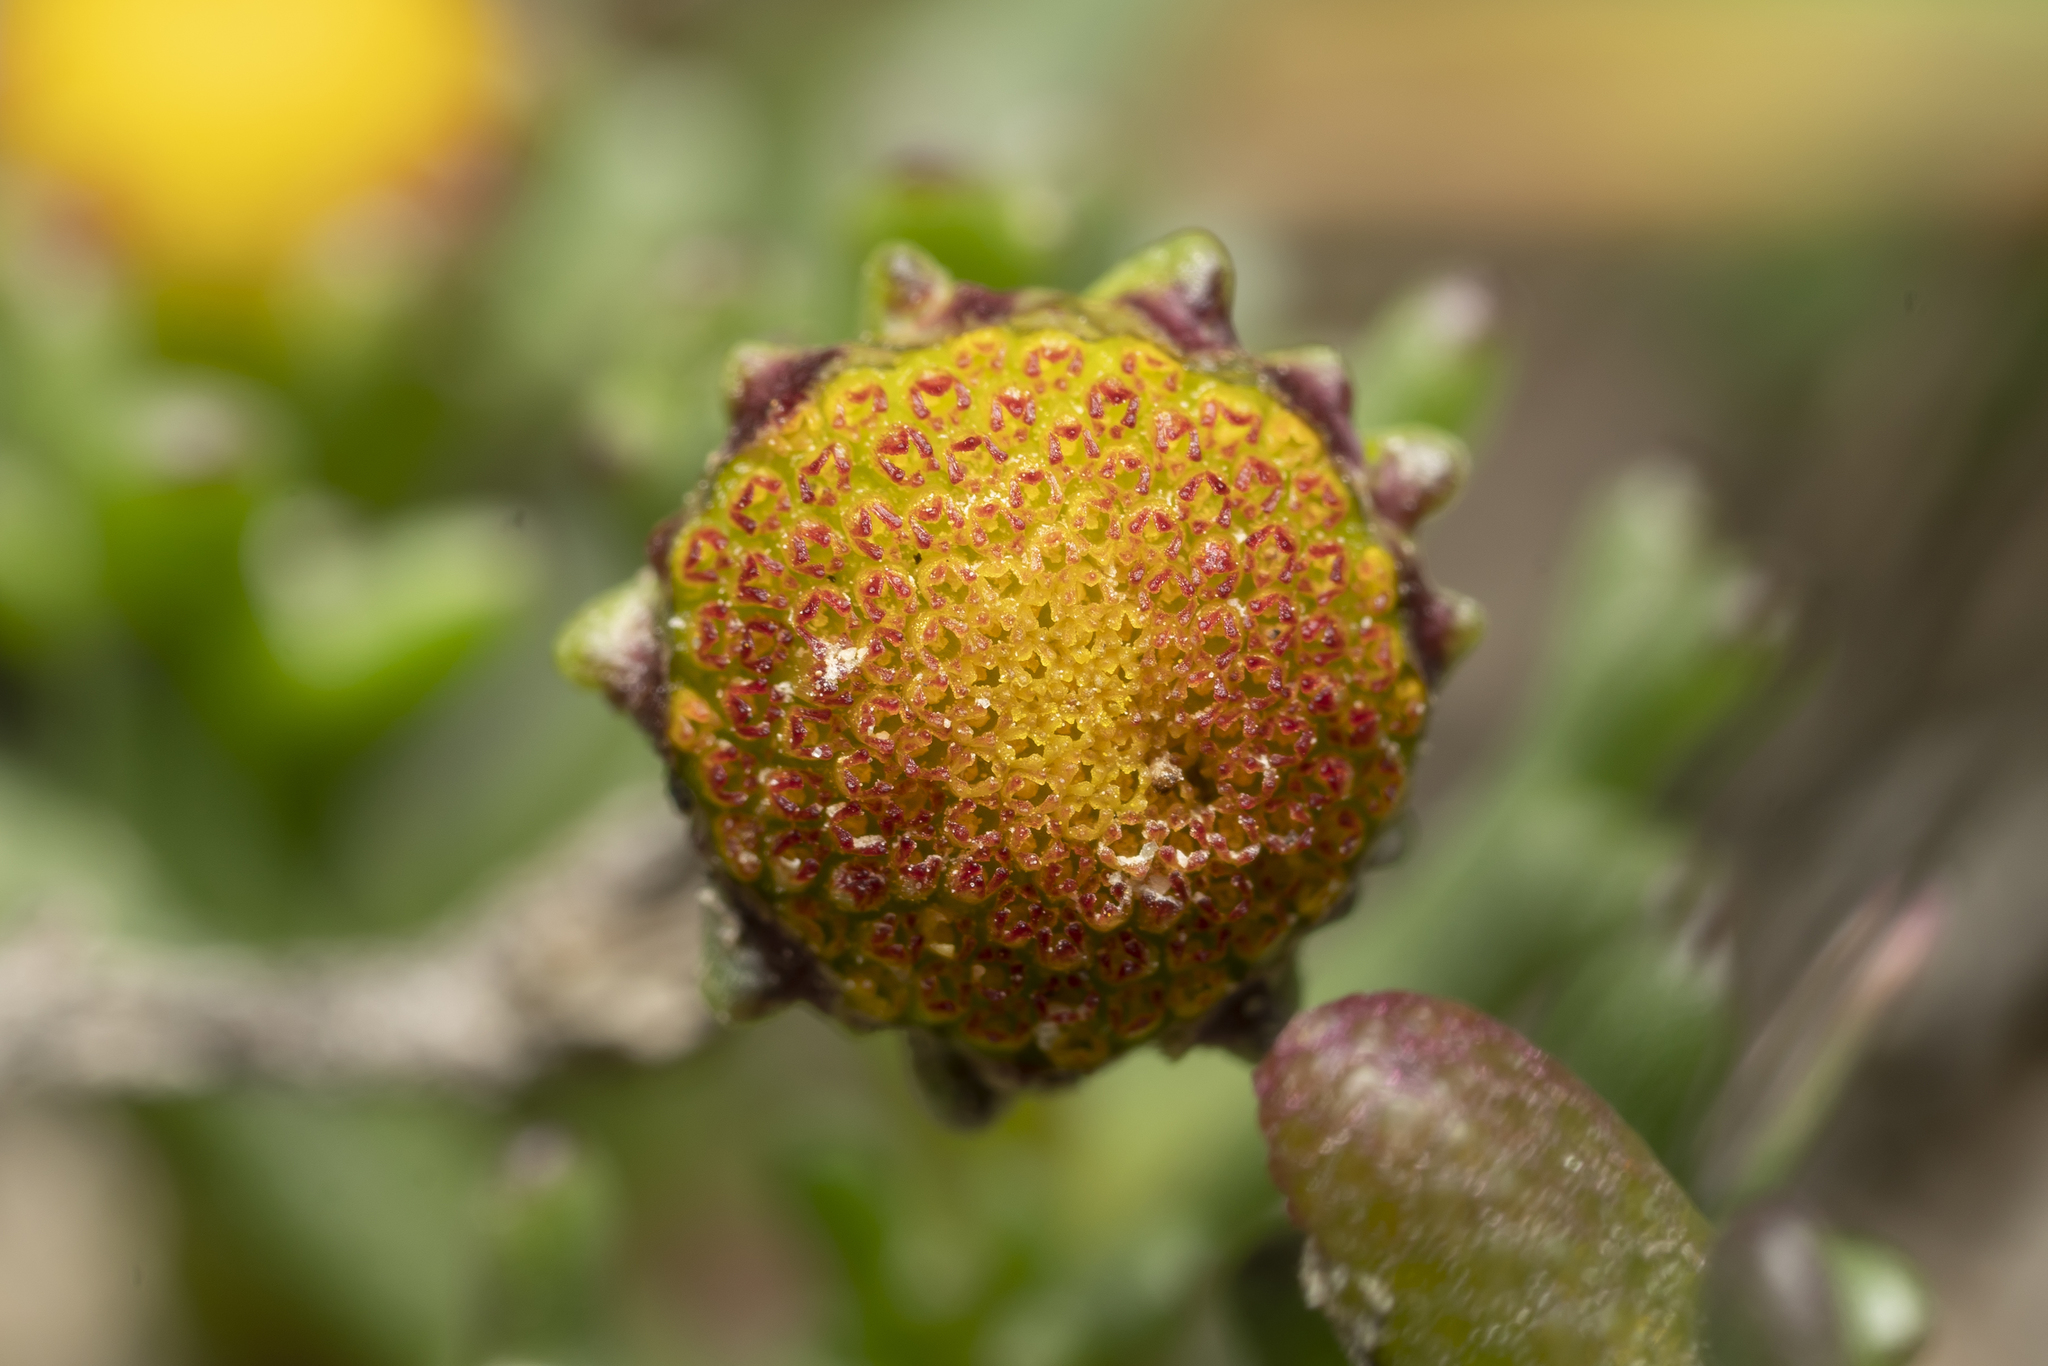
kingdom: Plantae
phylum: Tracheophyta
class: Magnoliopsida
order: Asterales
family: Asteraceae
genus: Chlamydophora
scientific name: Chlamydophora tridentata
